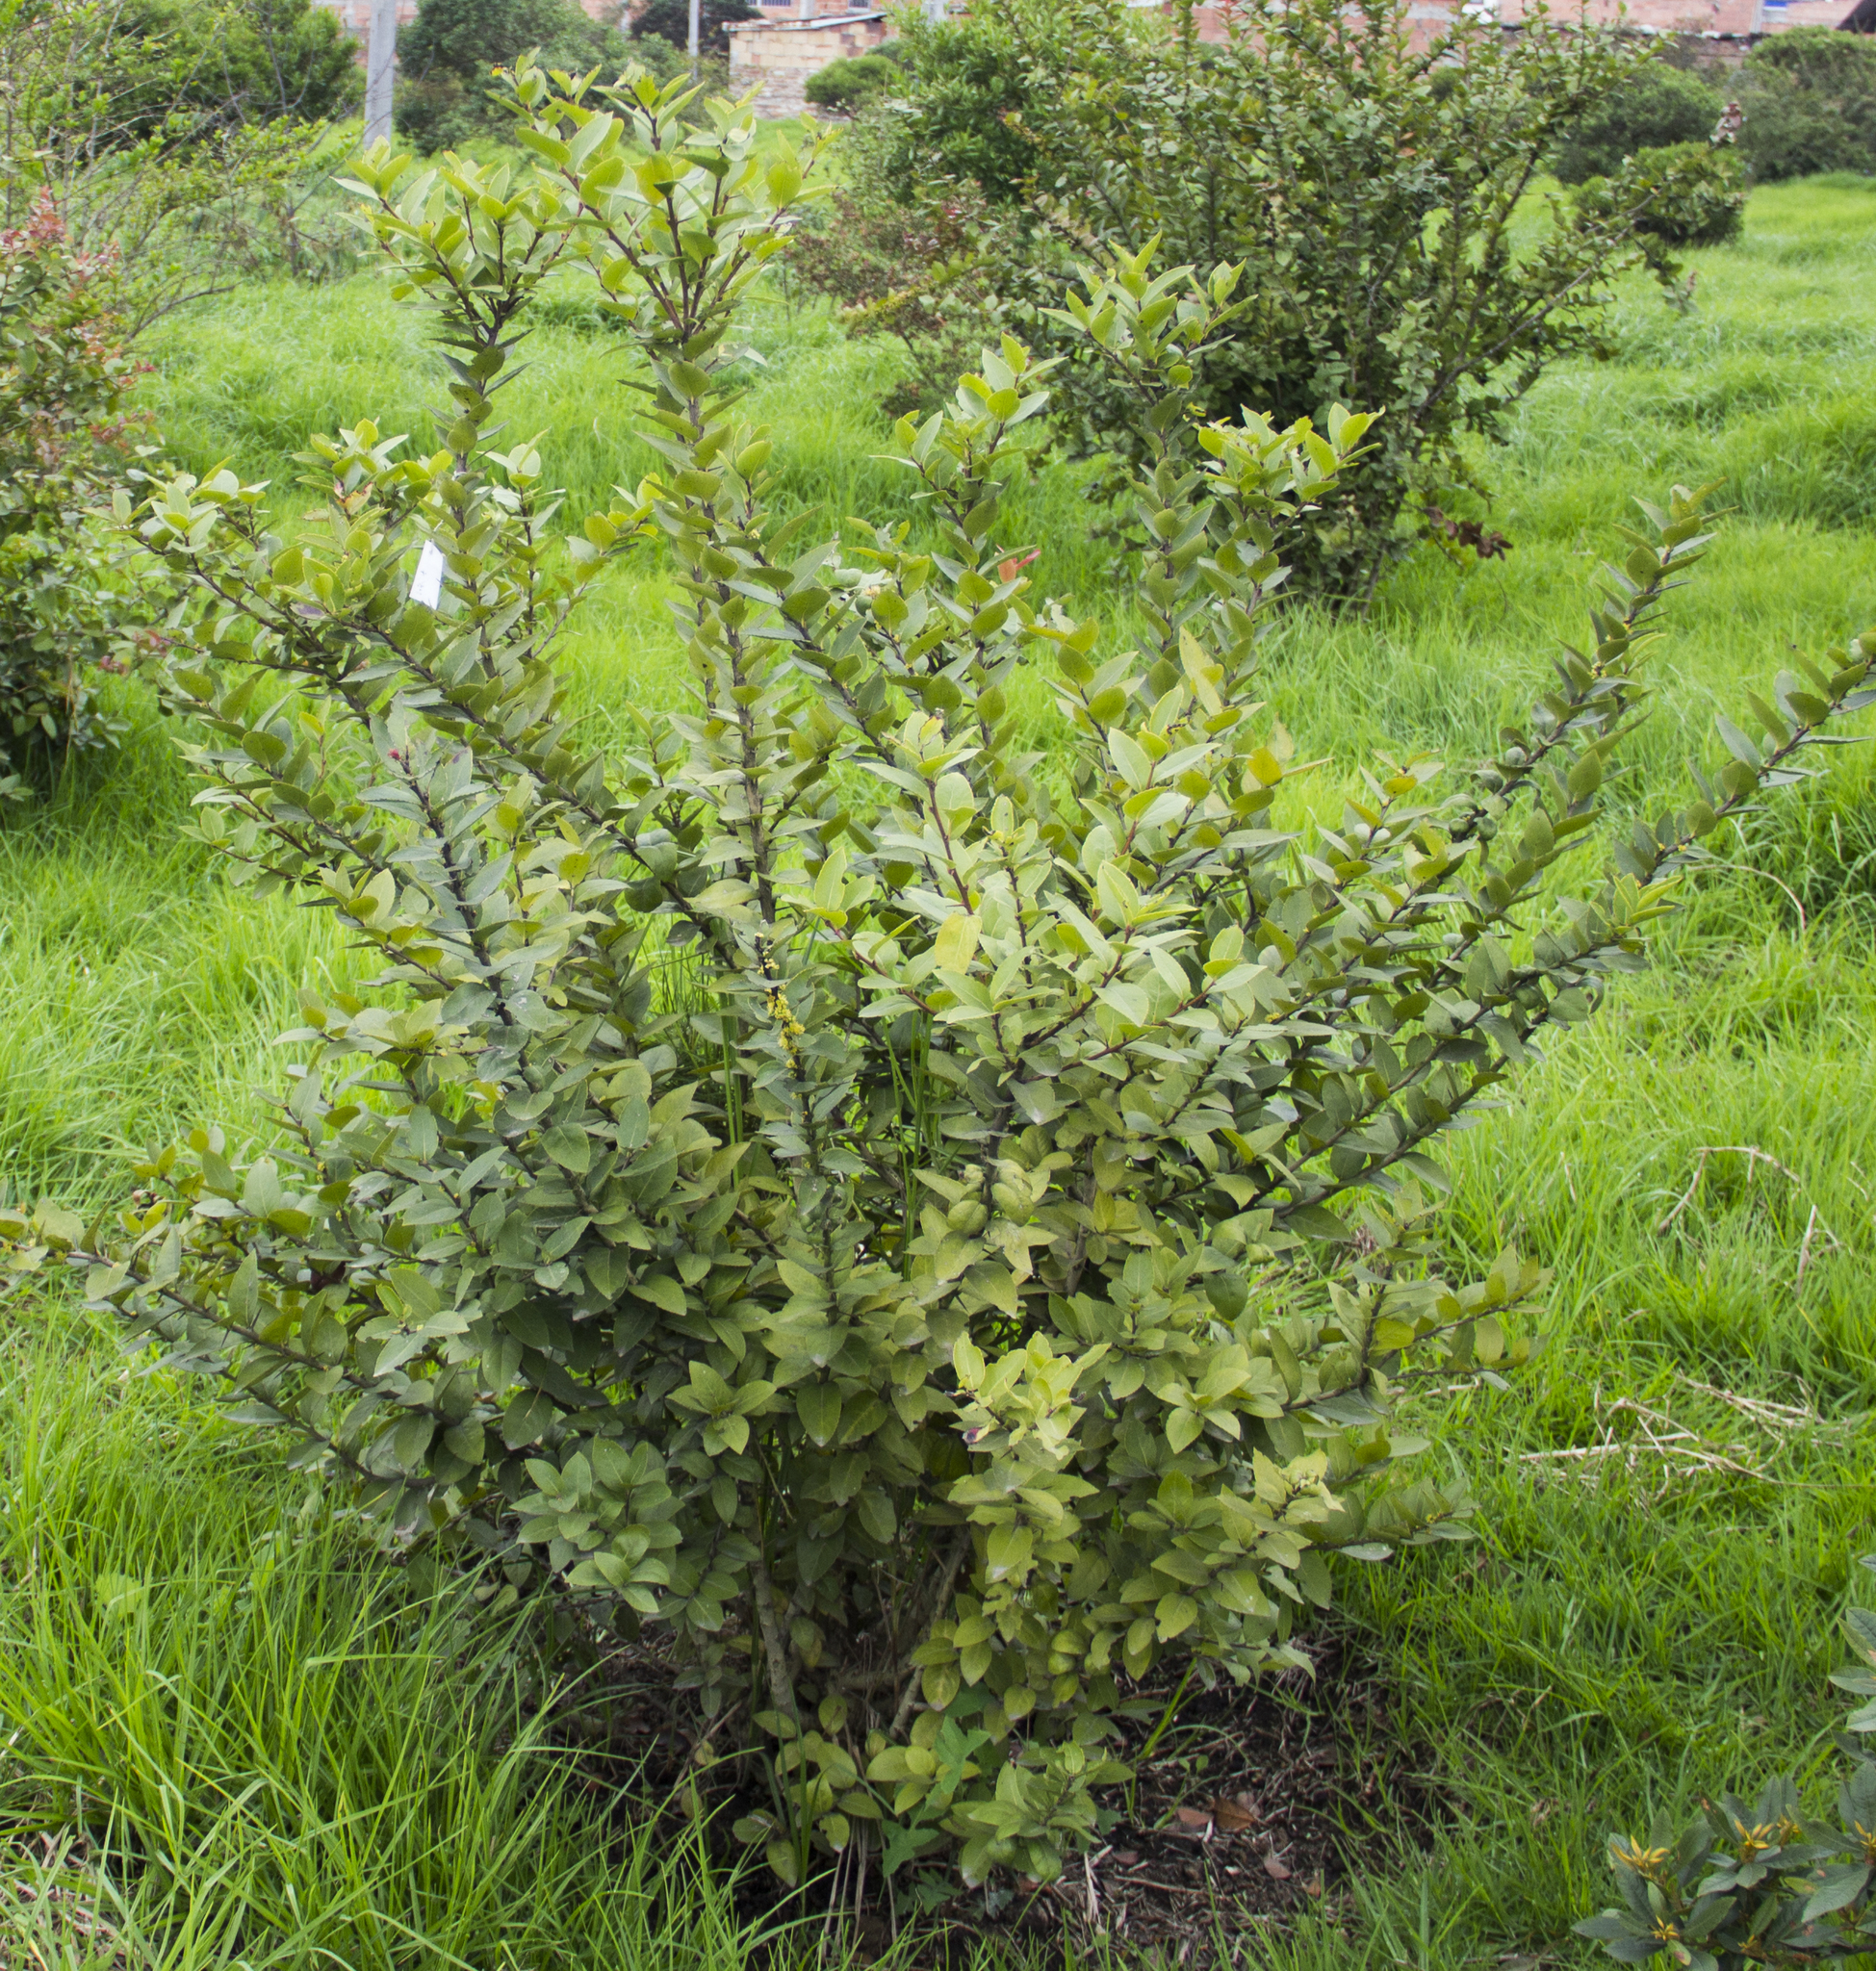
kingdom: Plantae
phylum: Tracheophyta
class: Magnoliopsida
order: Malpighiales
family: Salicaceae
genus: Xylosma
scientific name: Xylosma spiculifera
